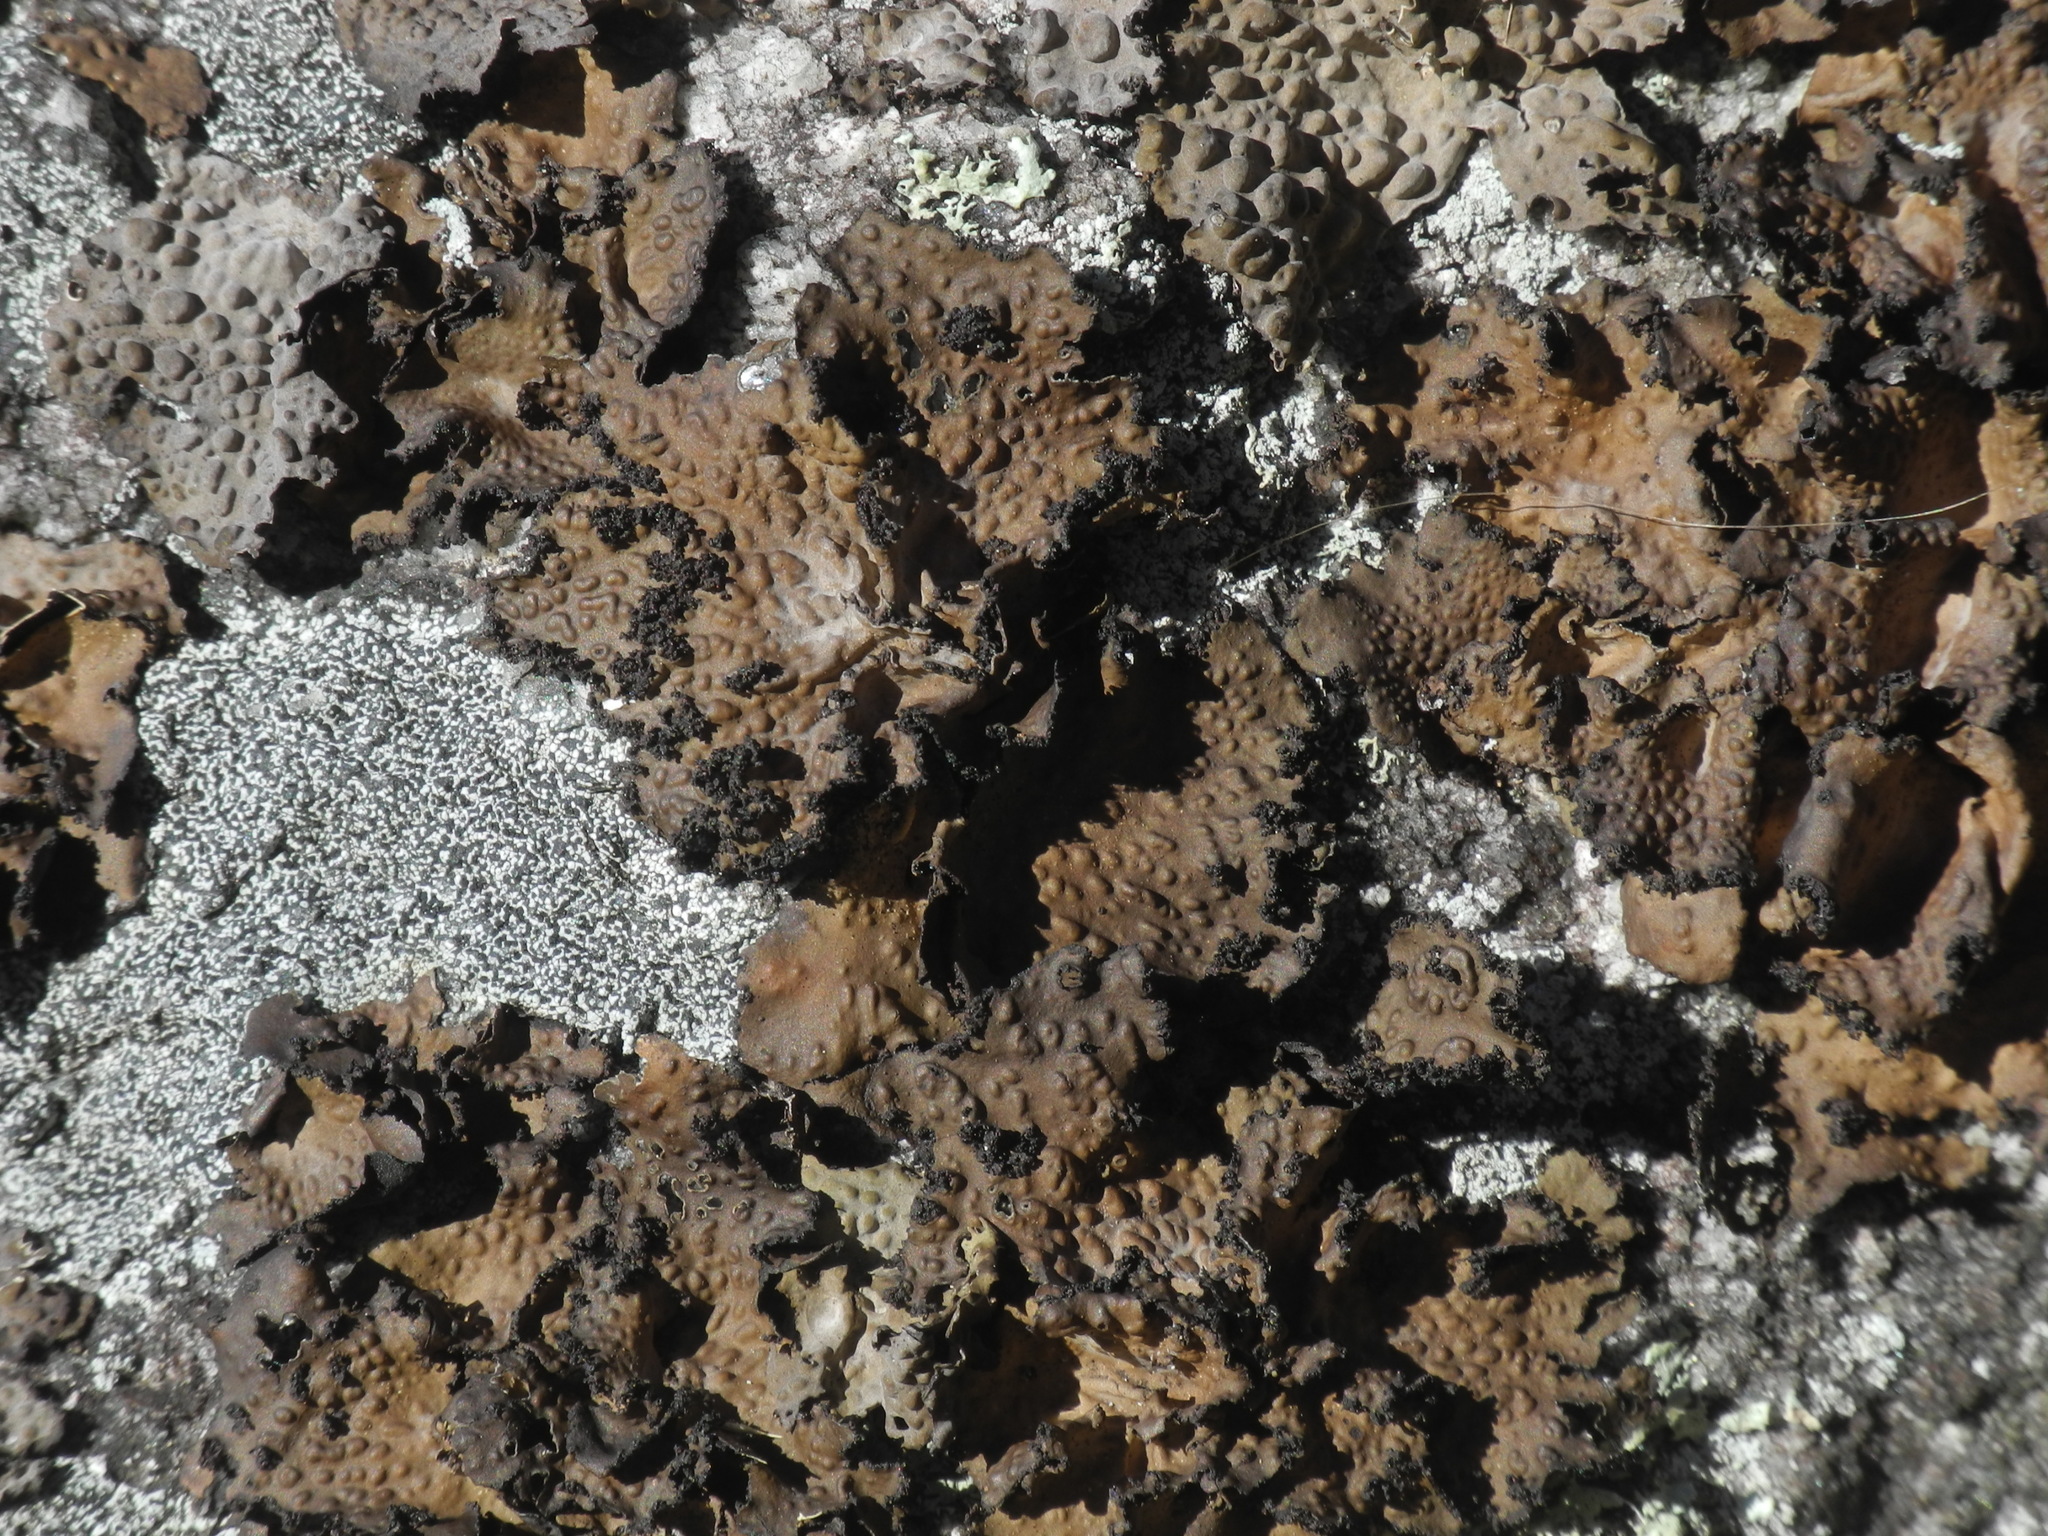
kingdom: Fungi
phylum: Ascomycota
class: Lecanoromycetes
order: Umbilicariales
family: Umbilicariaceae
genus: Lasallia
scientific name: Lasallia pensylvanica
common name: Blackened toadskin lichen
